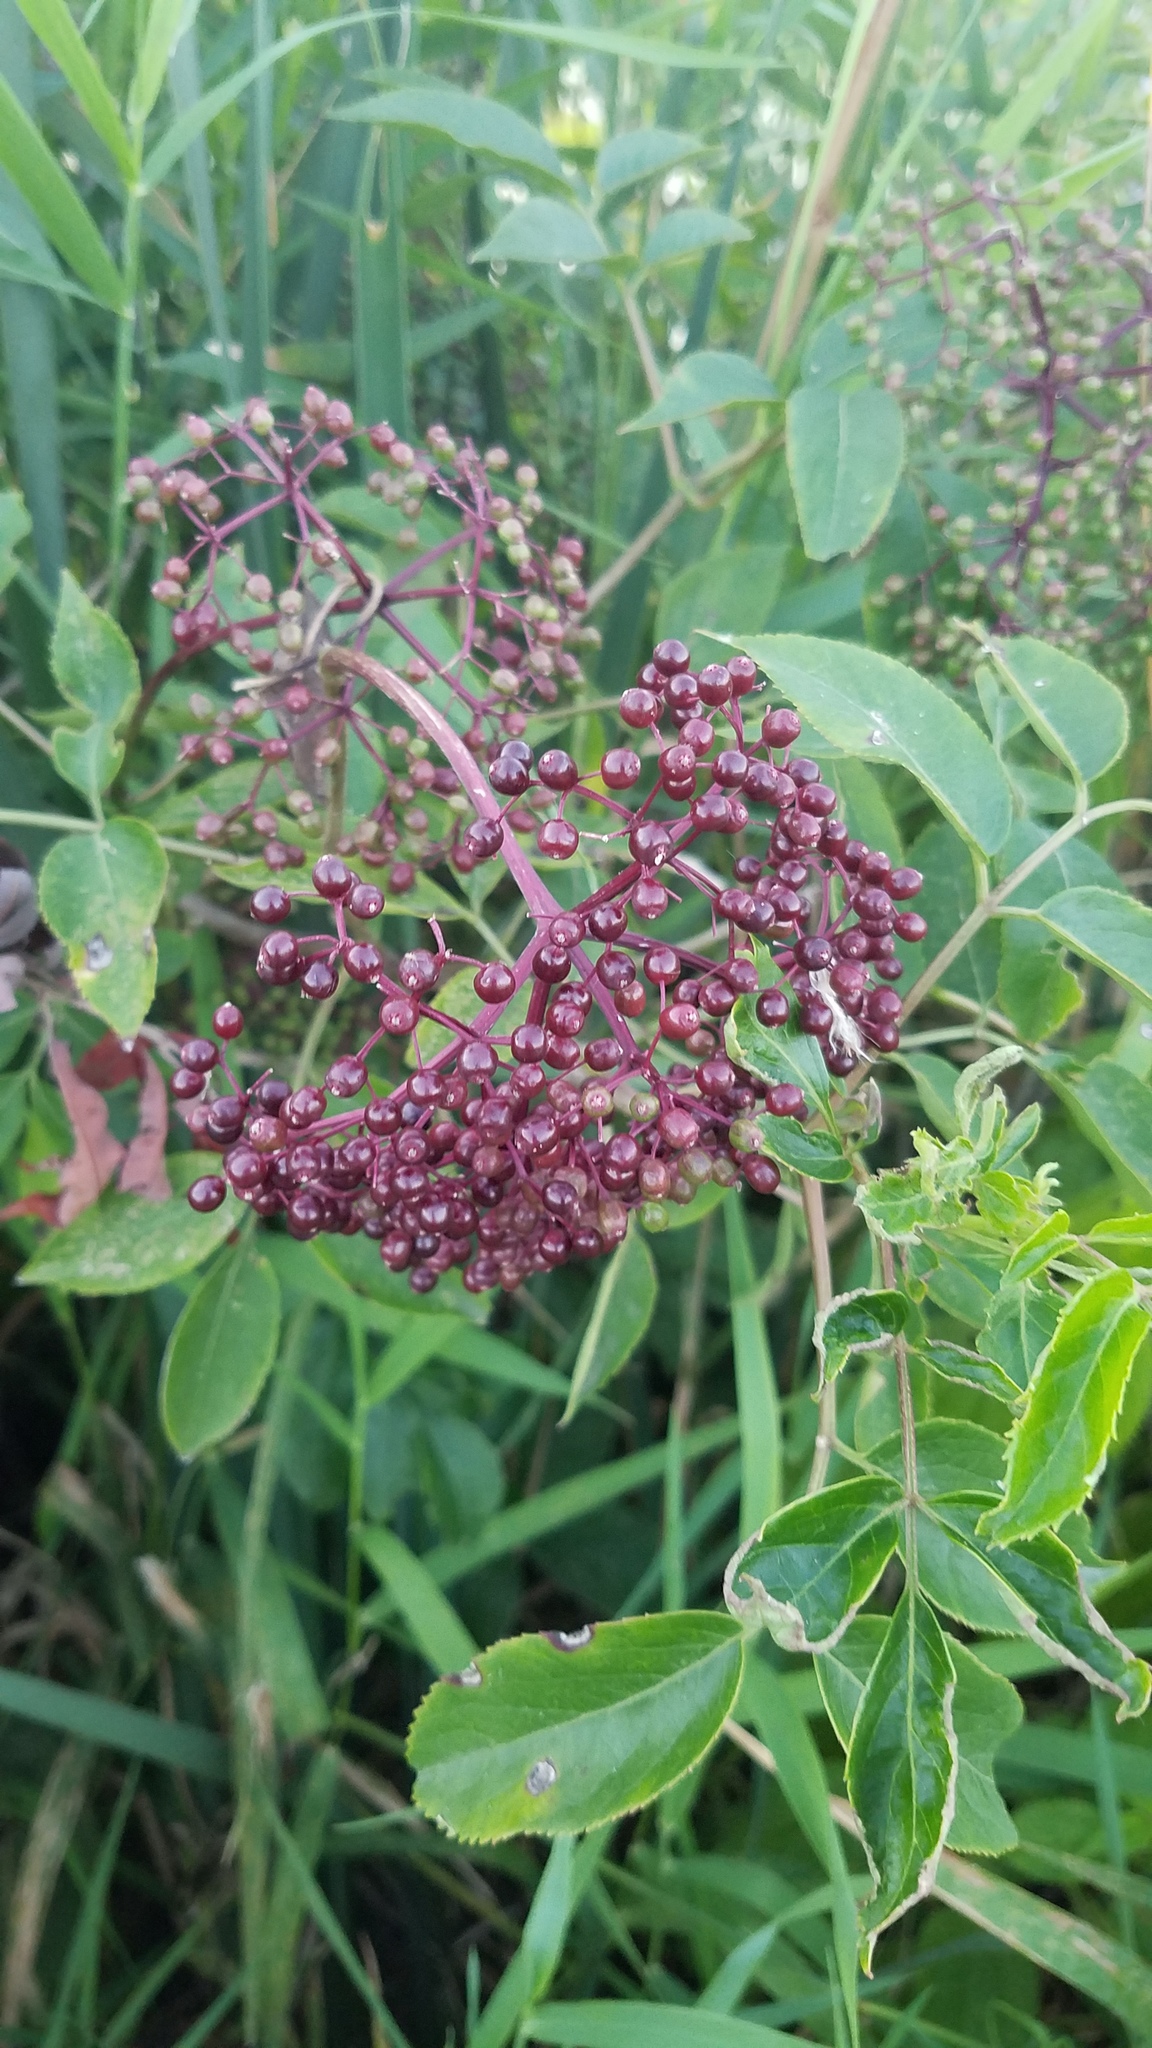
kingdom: Plantae
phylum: Tracheophyta
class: Magnoliopsida
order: Dipsacales
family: Viburnaceae
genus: Sambucus
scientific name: Sambucus canadensis
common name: American elder
